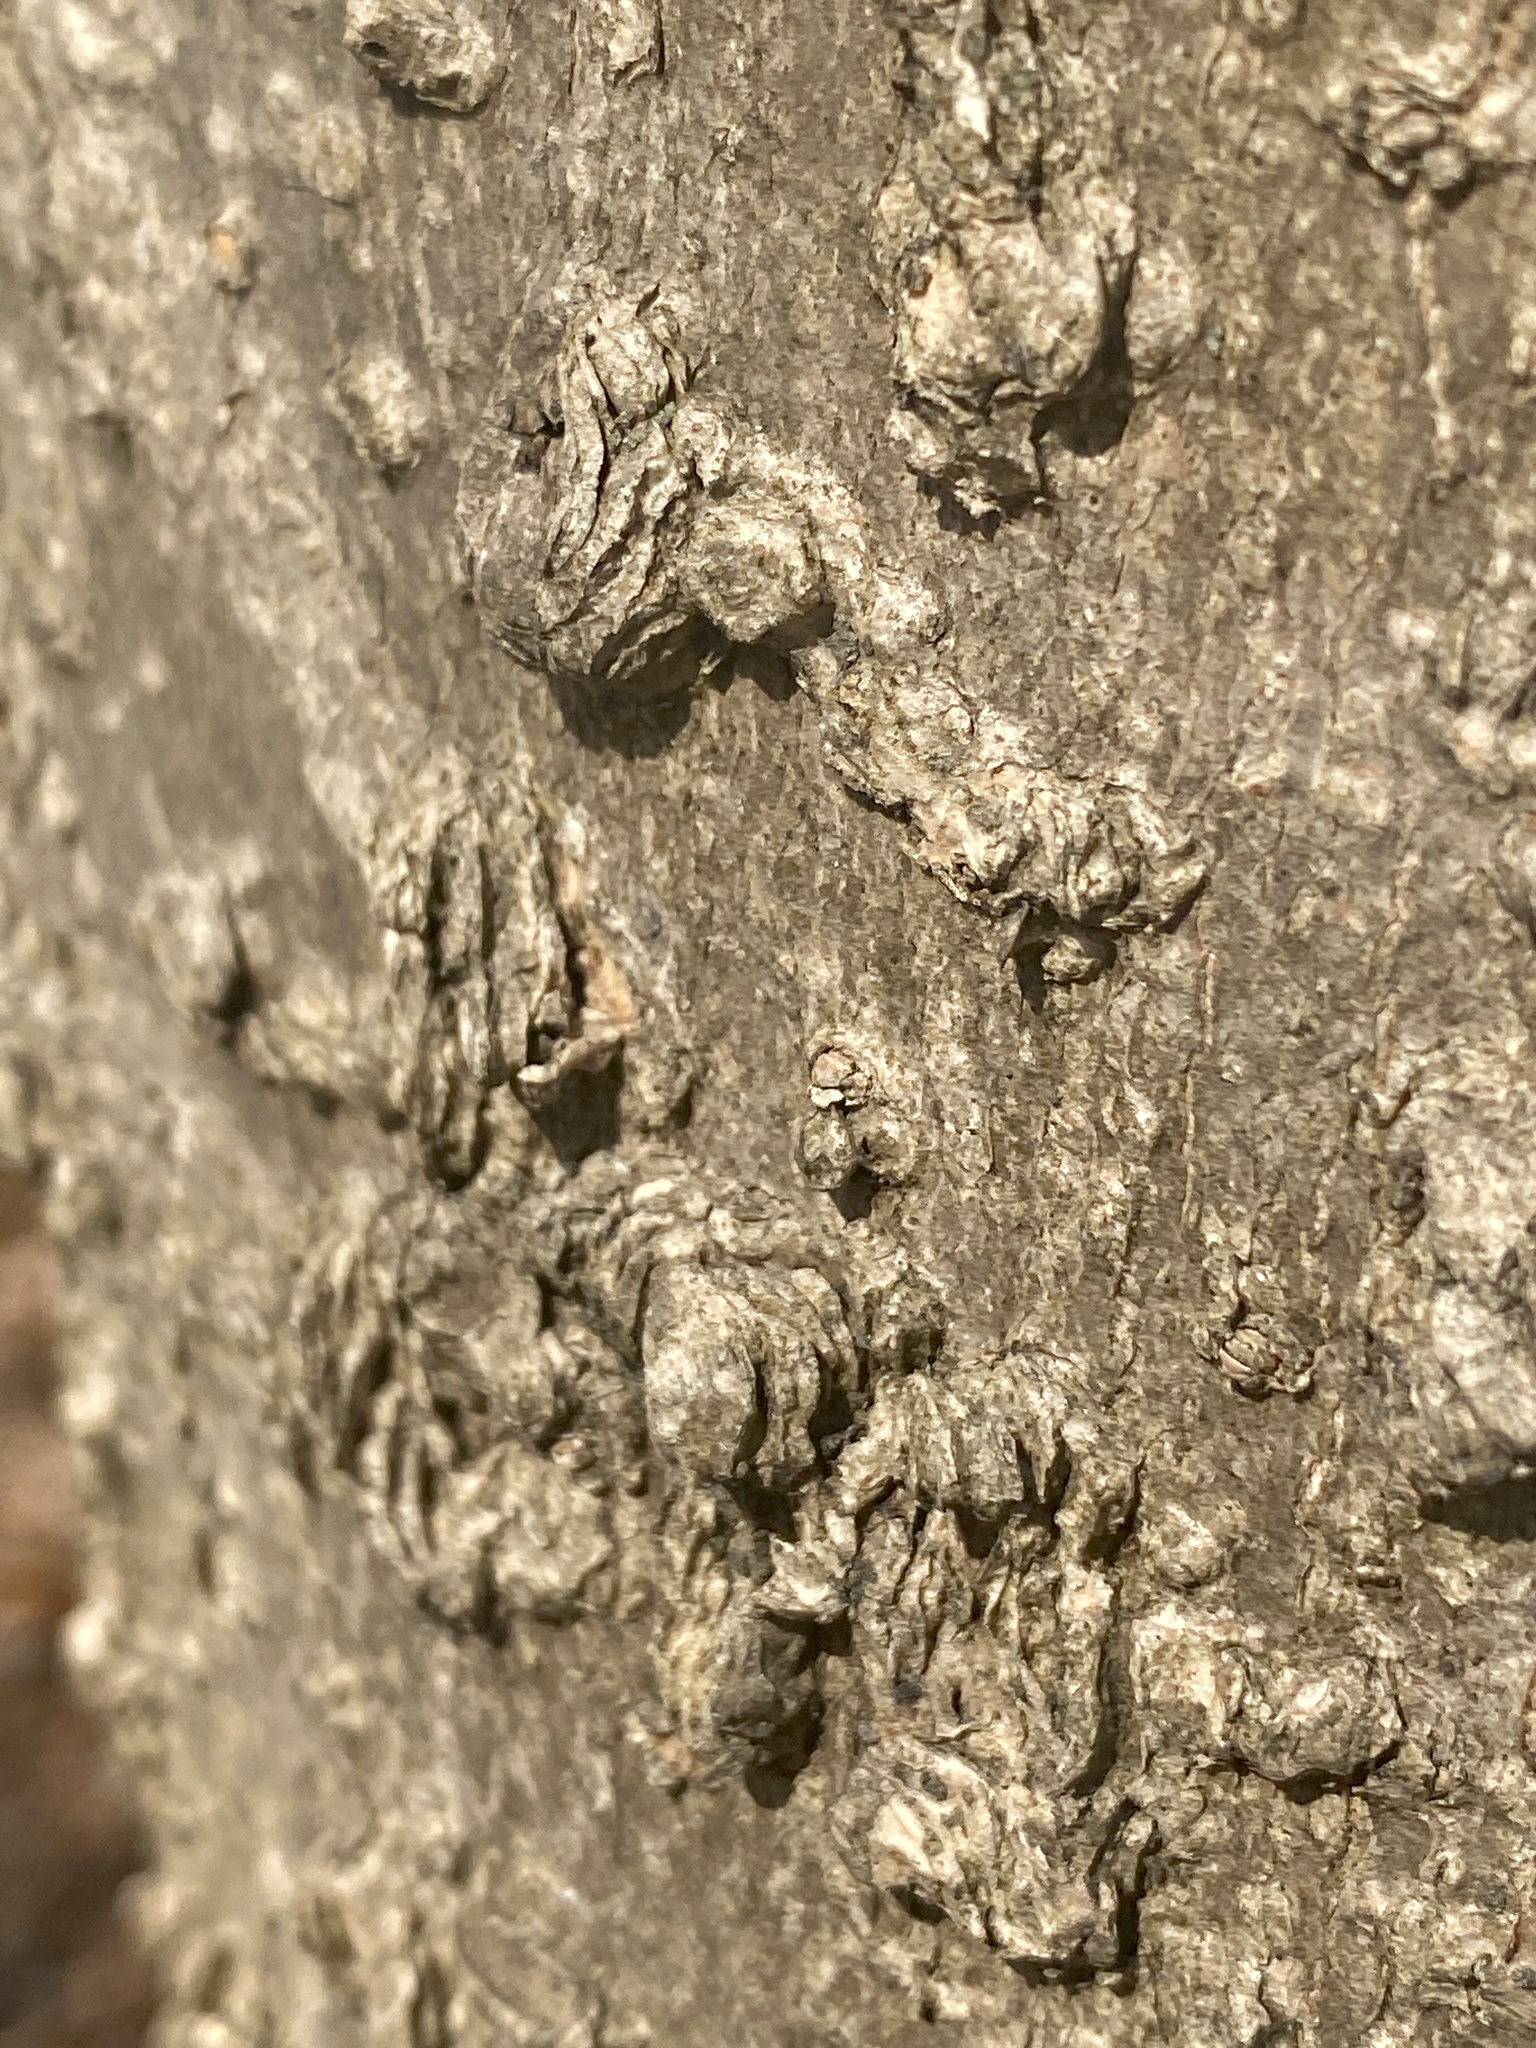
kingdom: Plantae
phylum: Tracheophyta
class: Magnoliopsida
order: Rosales
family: Cannabaceae
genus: Celtis
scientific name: Celtis occidentalis
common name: Common hackberry
